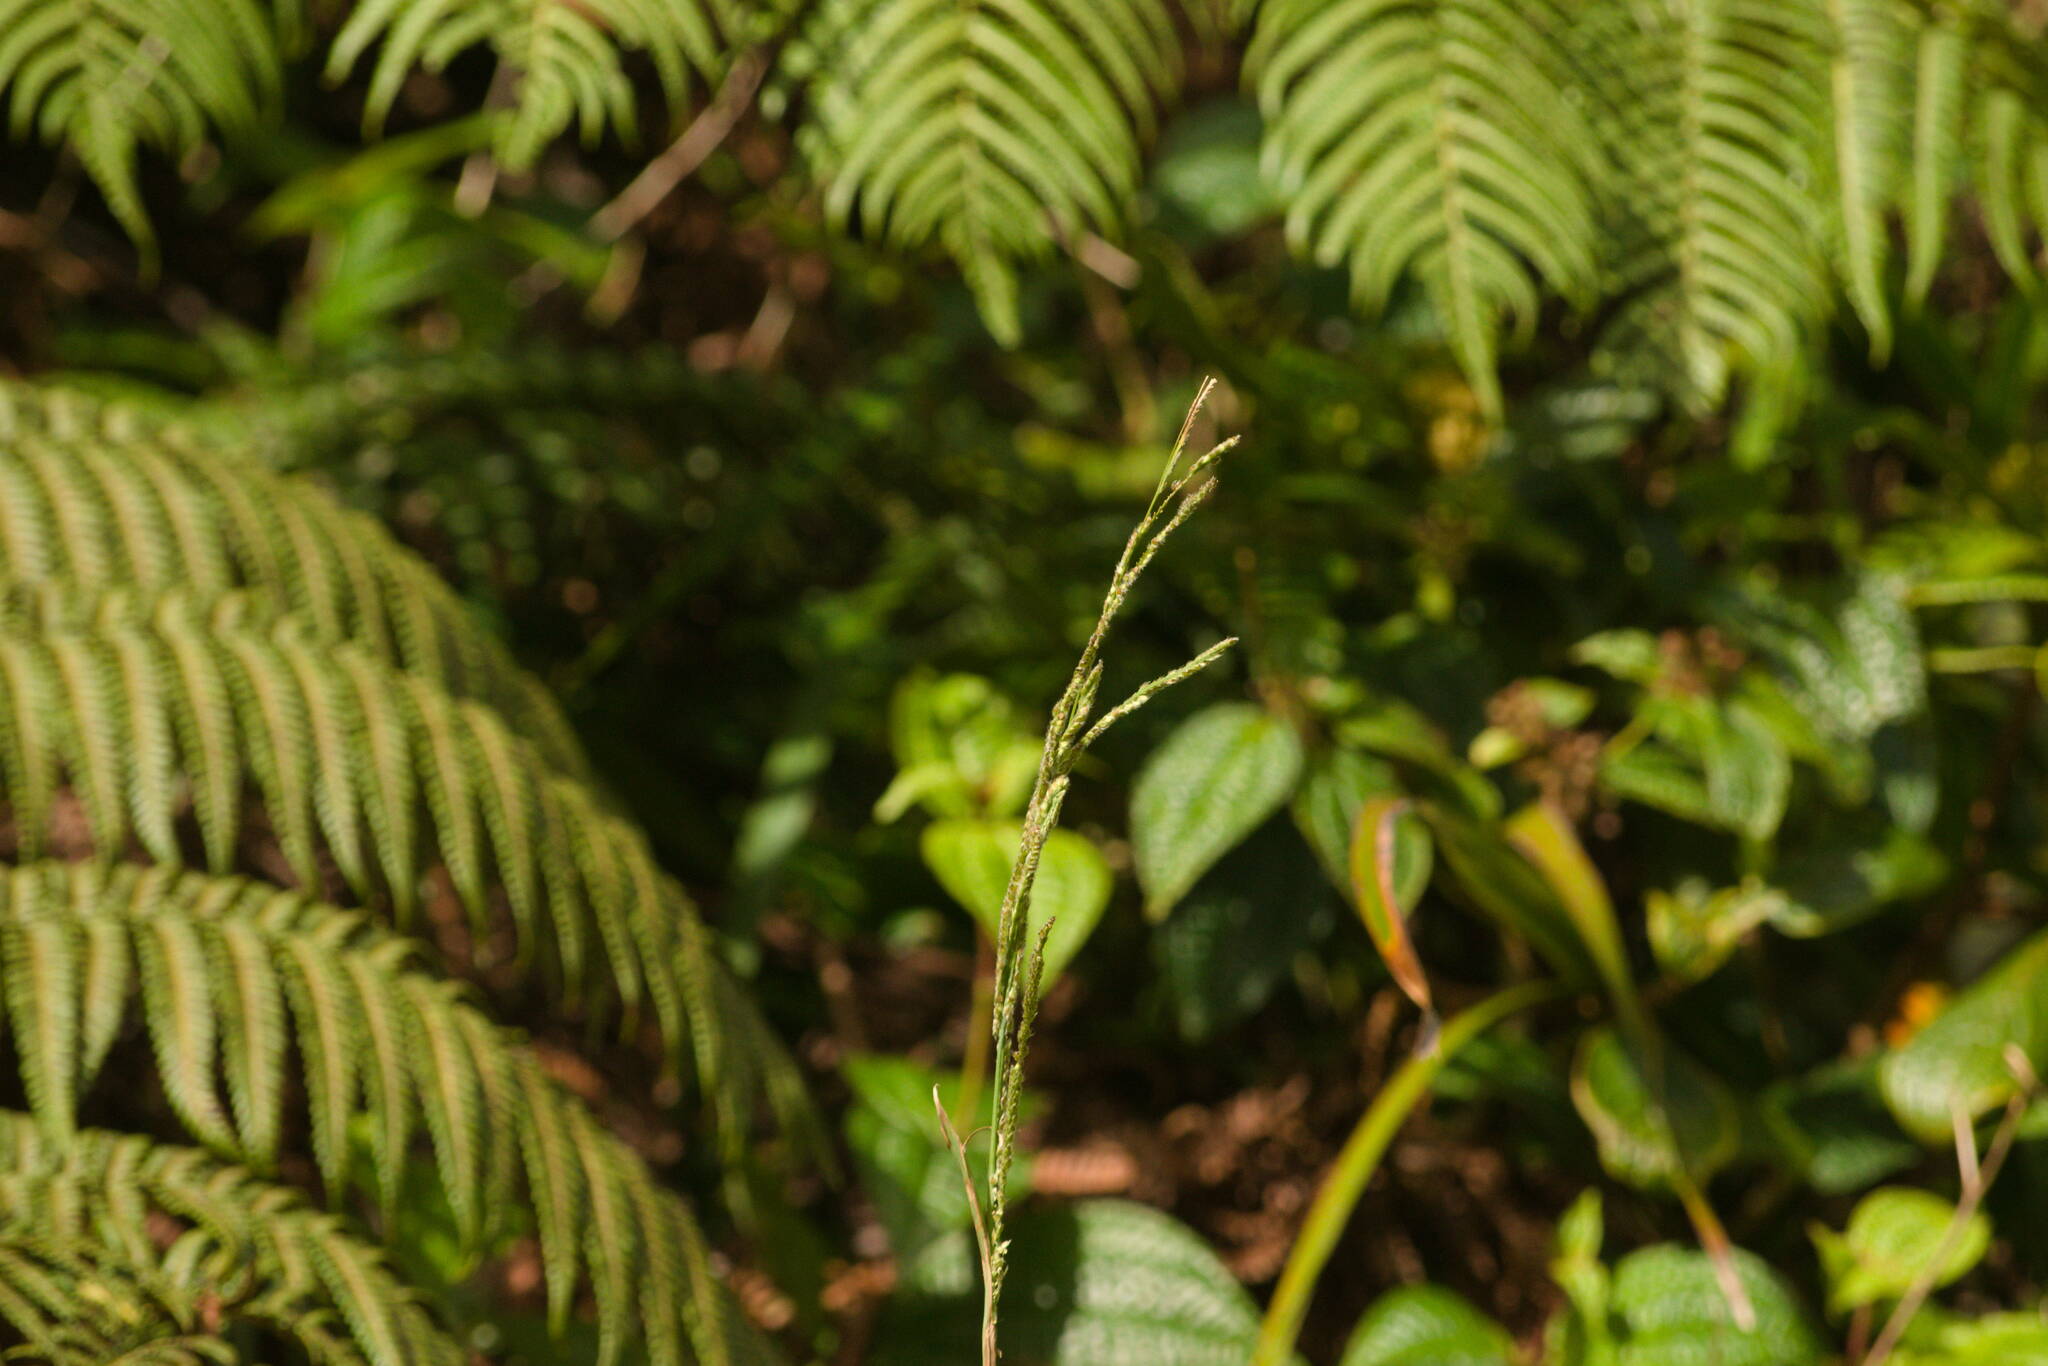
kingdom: Plantae
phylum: Tracheophyta
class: Liliopsida
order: Poales
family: Poaceae
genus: Paspalum
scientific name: Paspalum urvillei
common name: Vasey's grass
